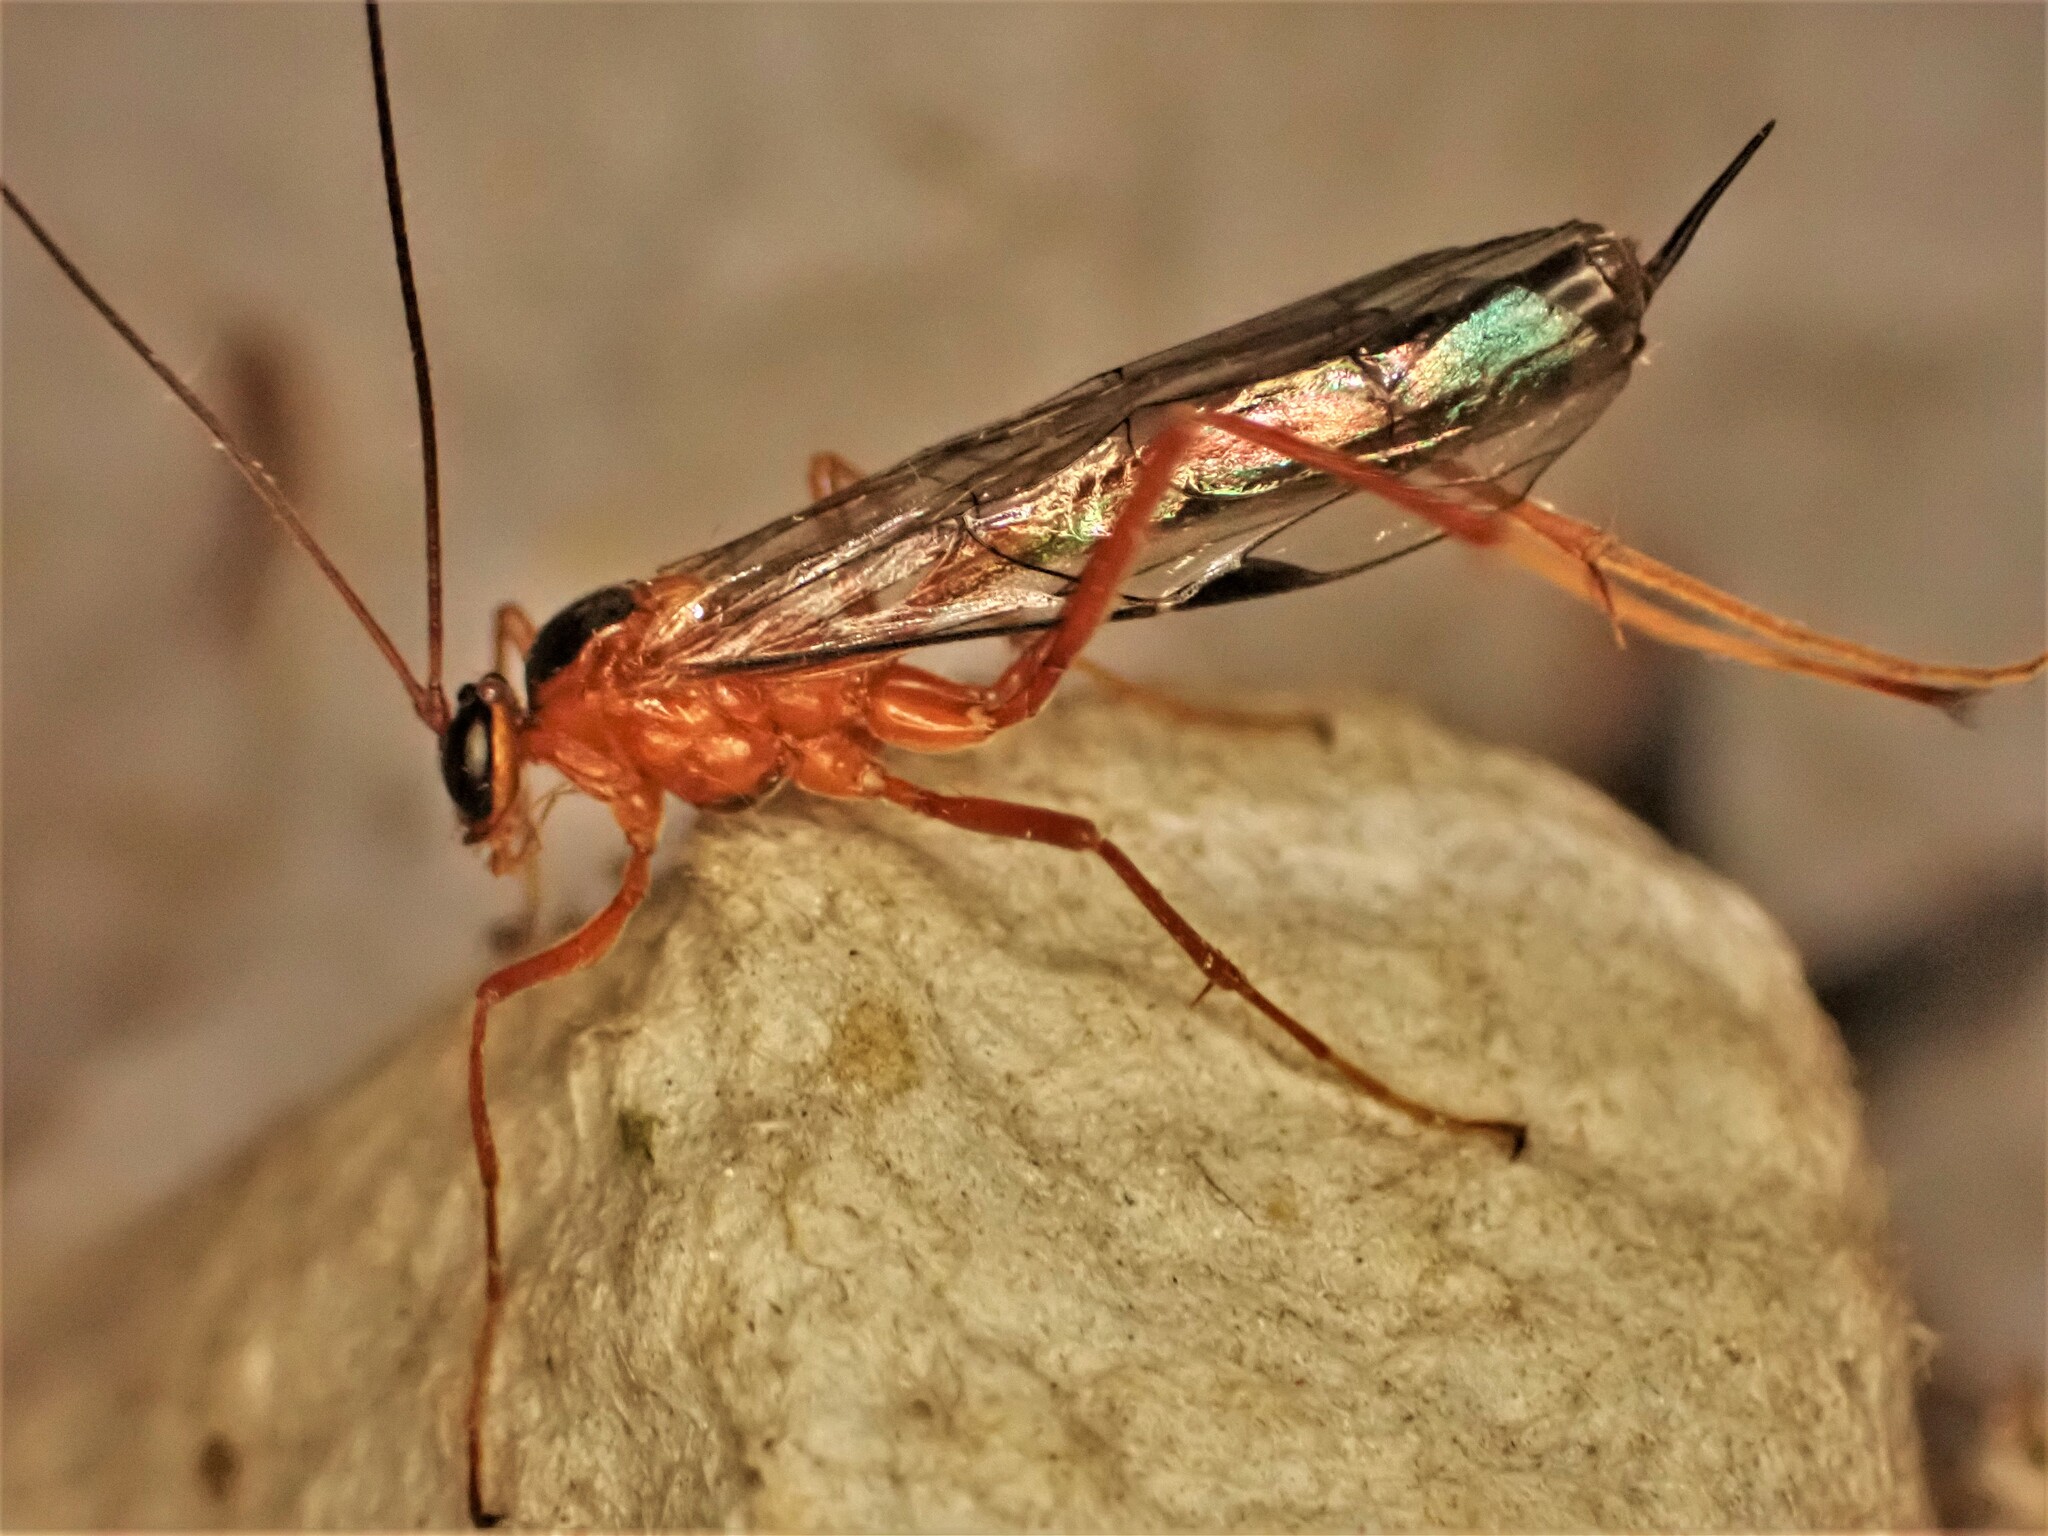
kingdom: Animalia
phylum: Arthropoda
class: Insecta
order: Hymenoptera
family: Ichneumonidae
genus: Netelia
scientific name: Netelia ephippiata
